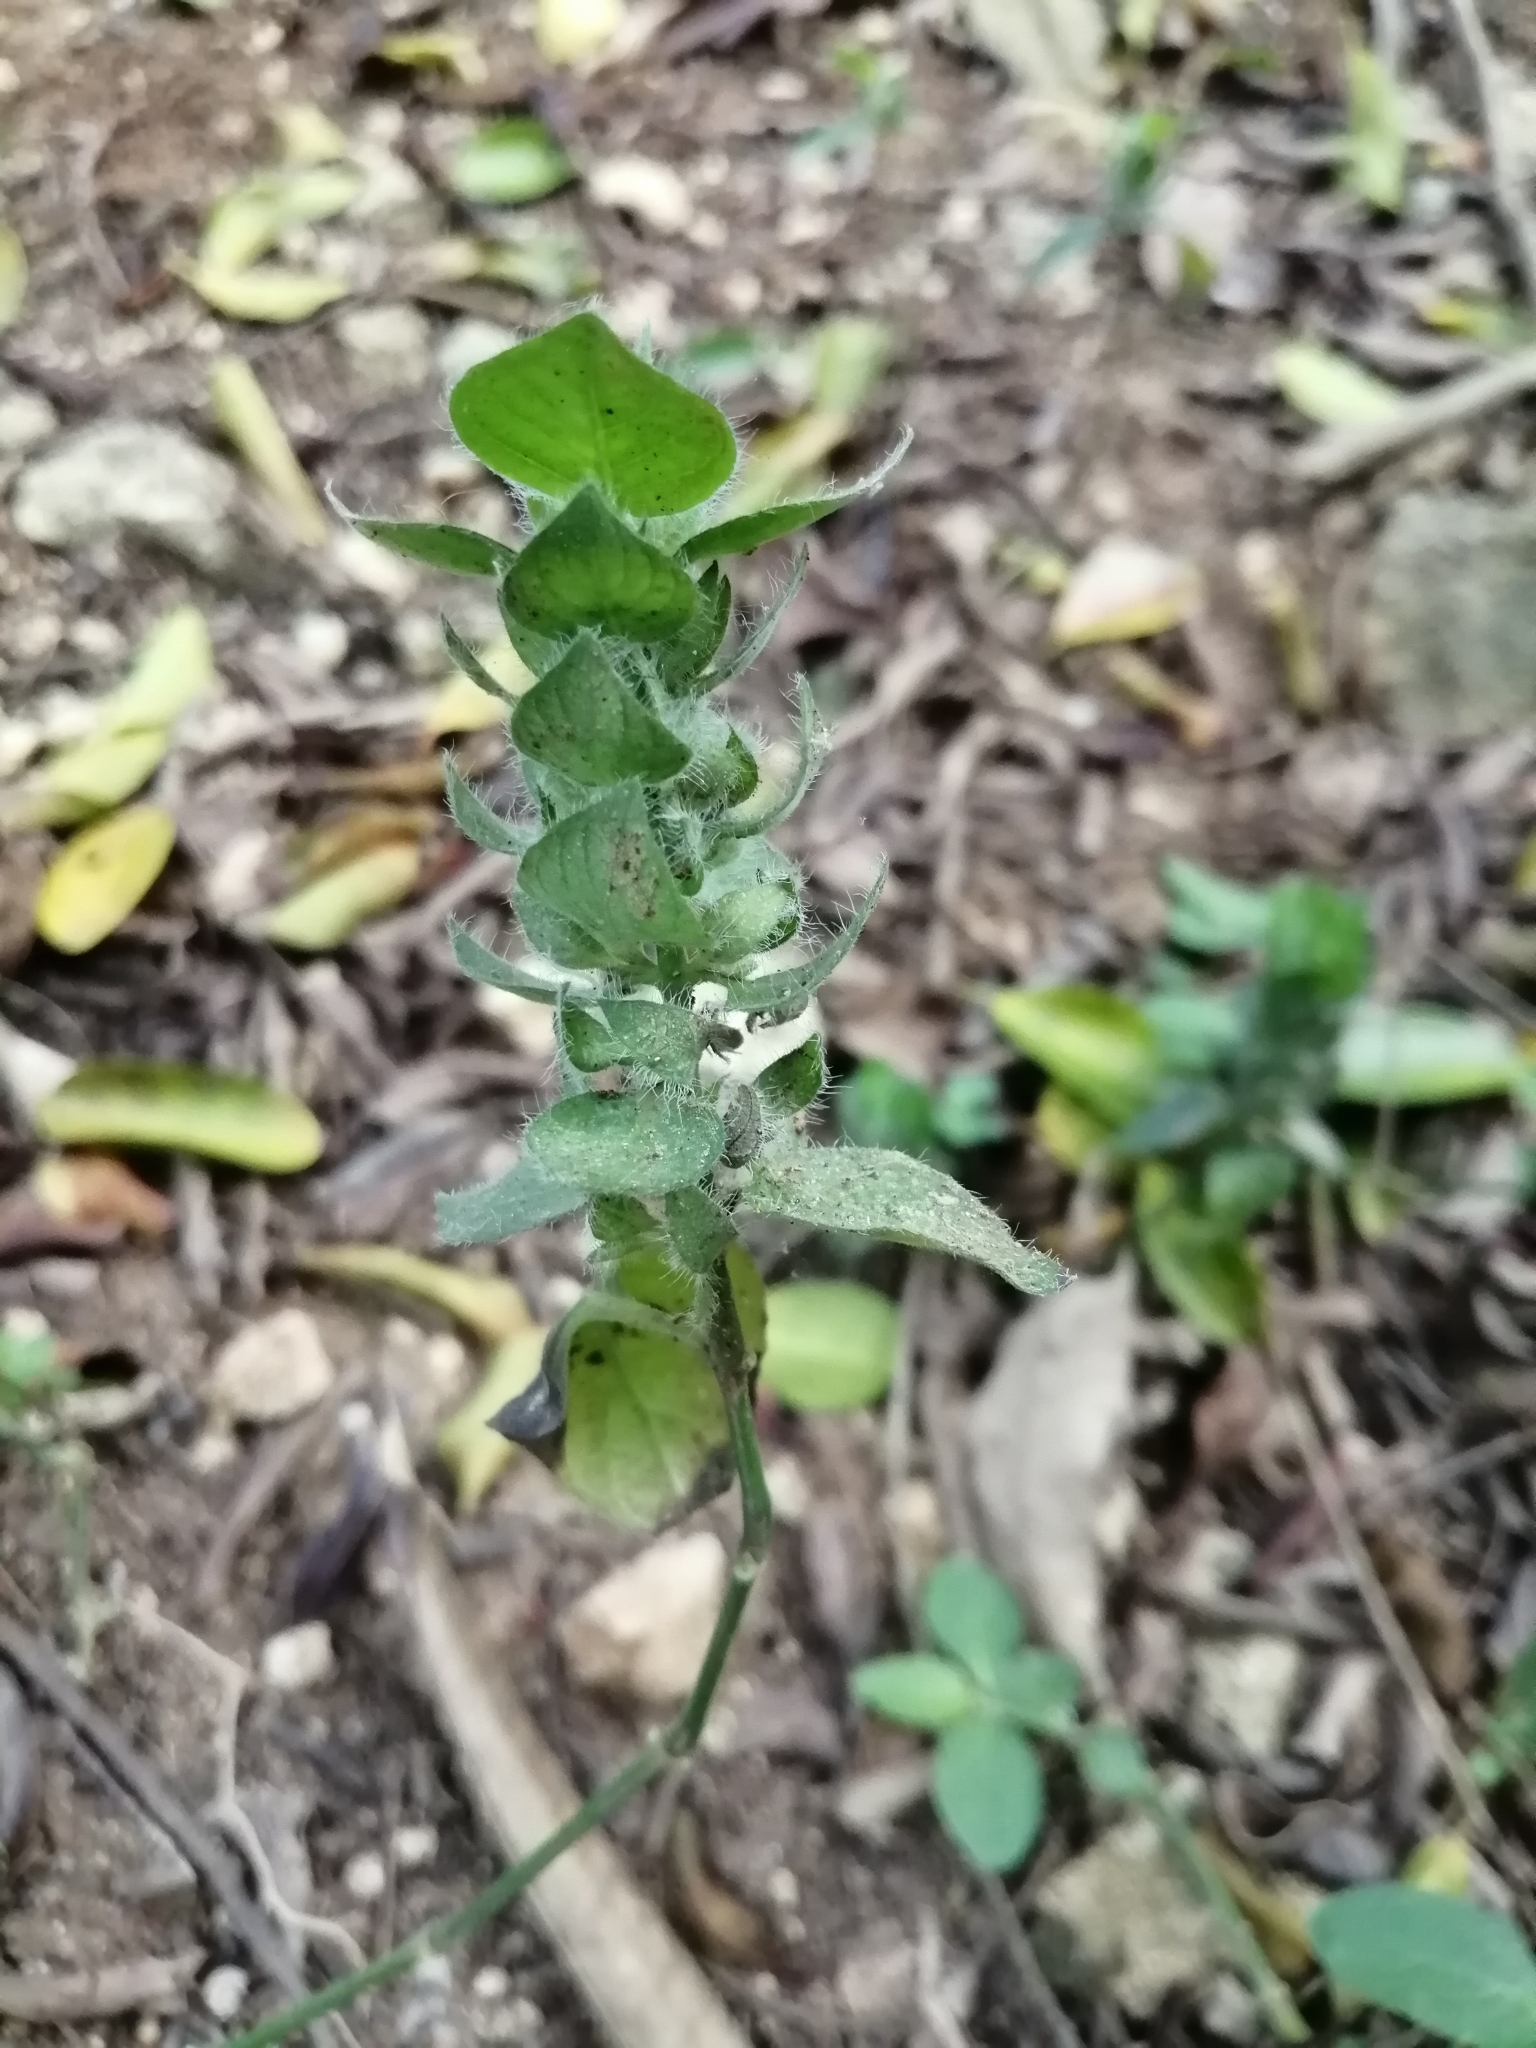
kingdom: Plantae
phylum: Tracheophyta
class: Magnoliopsida
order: Lamiales
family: Acanthaceae
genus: Ruellia
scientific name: Ruellia blechum
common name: Browne's blechum
